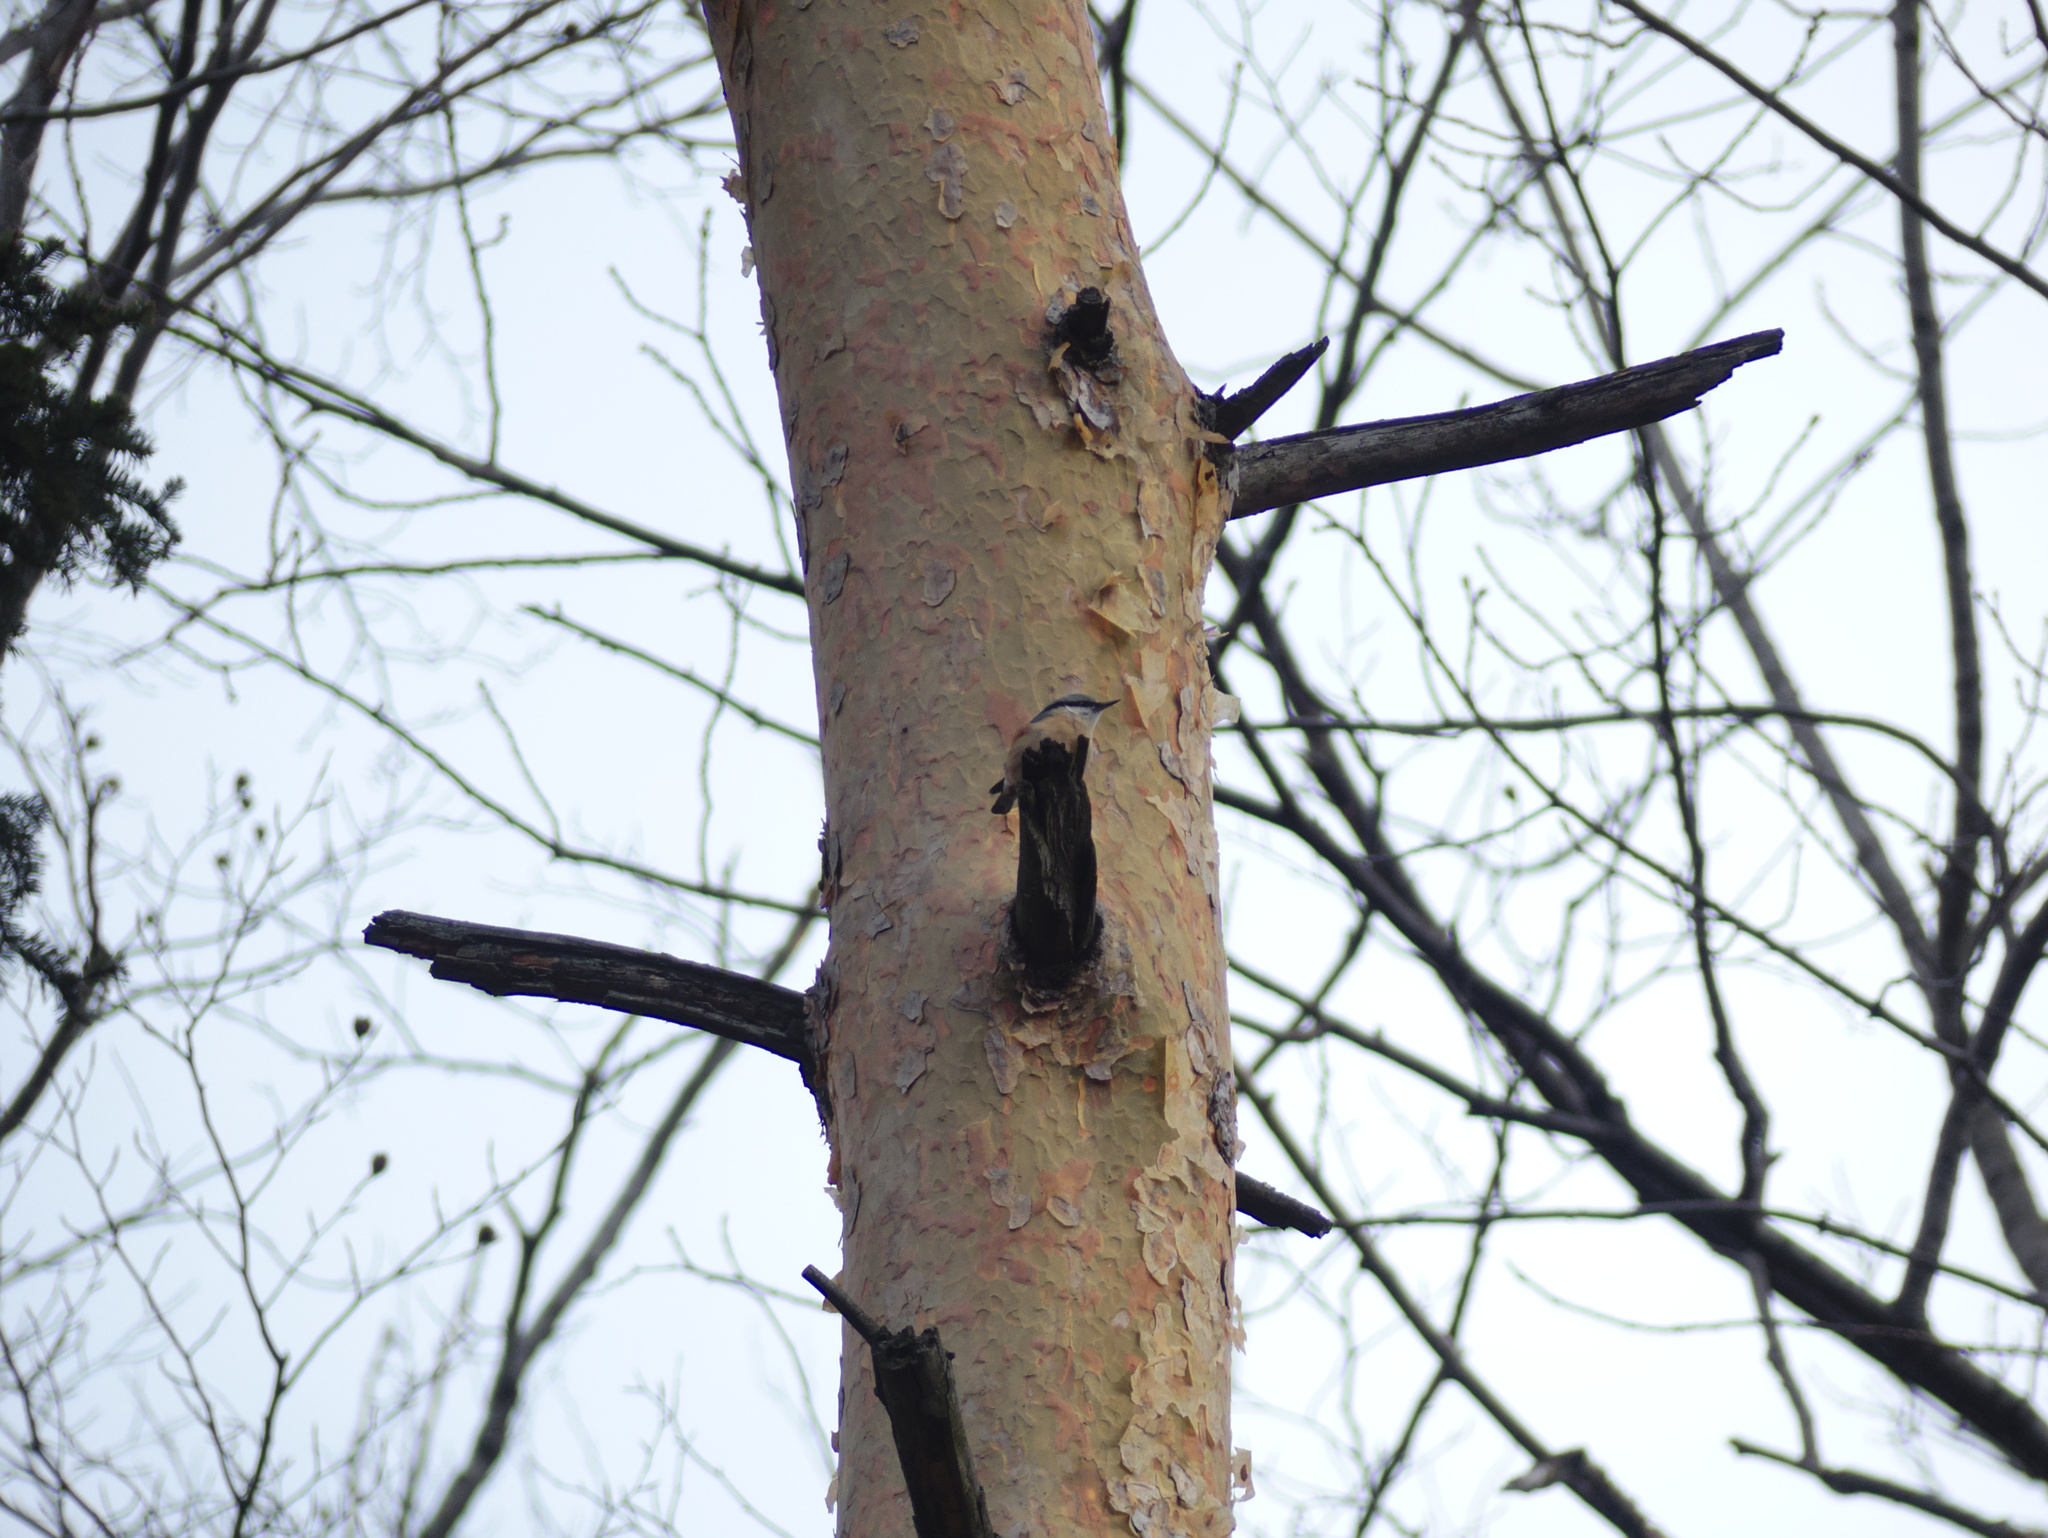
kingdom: Animalia
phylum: Chordata
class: Aves
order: Passeriformes
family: Sittidae
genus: Sitta
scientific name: Sitta europaea
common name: Eurasian nuthatch
